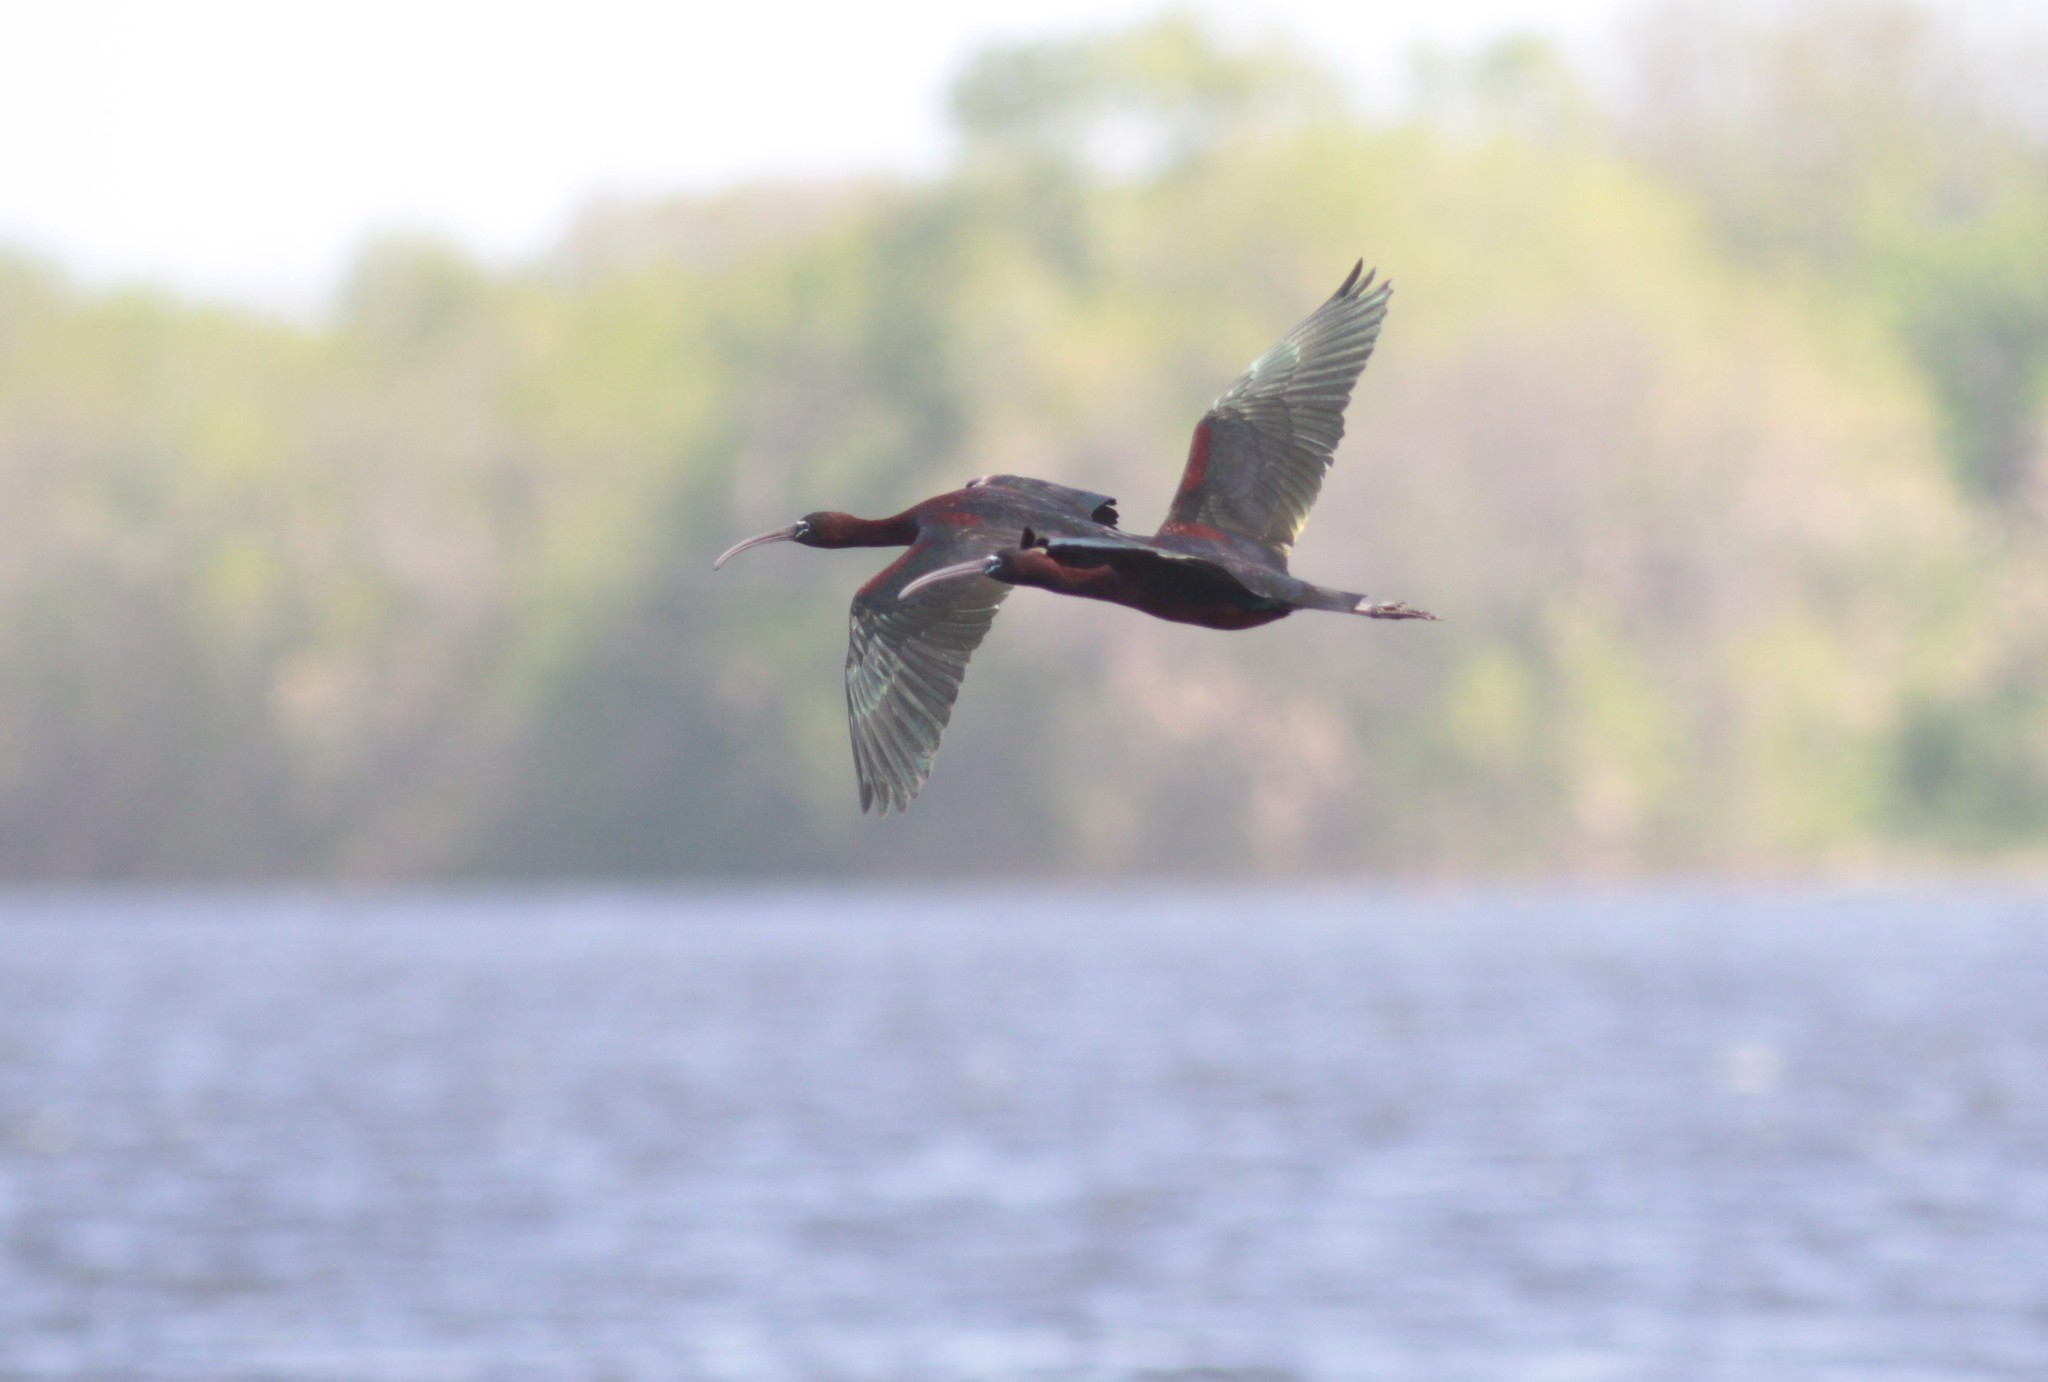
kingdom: Animalia
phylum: Chordata
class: Aves
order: Pelecaniformes
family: Threskiornithidae
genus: Plegadis
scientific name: Plegadis falcinellus
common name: Glossy ibis
